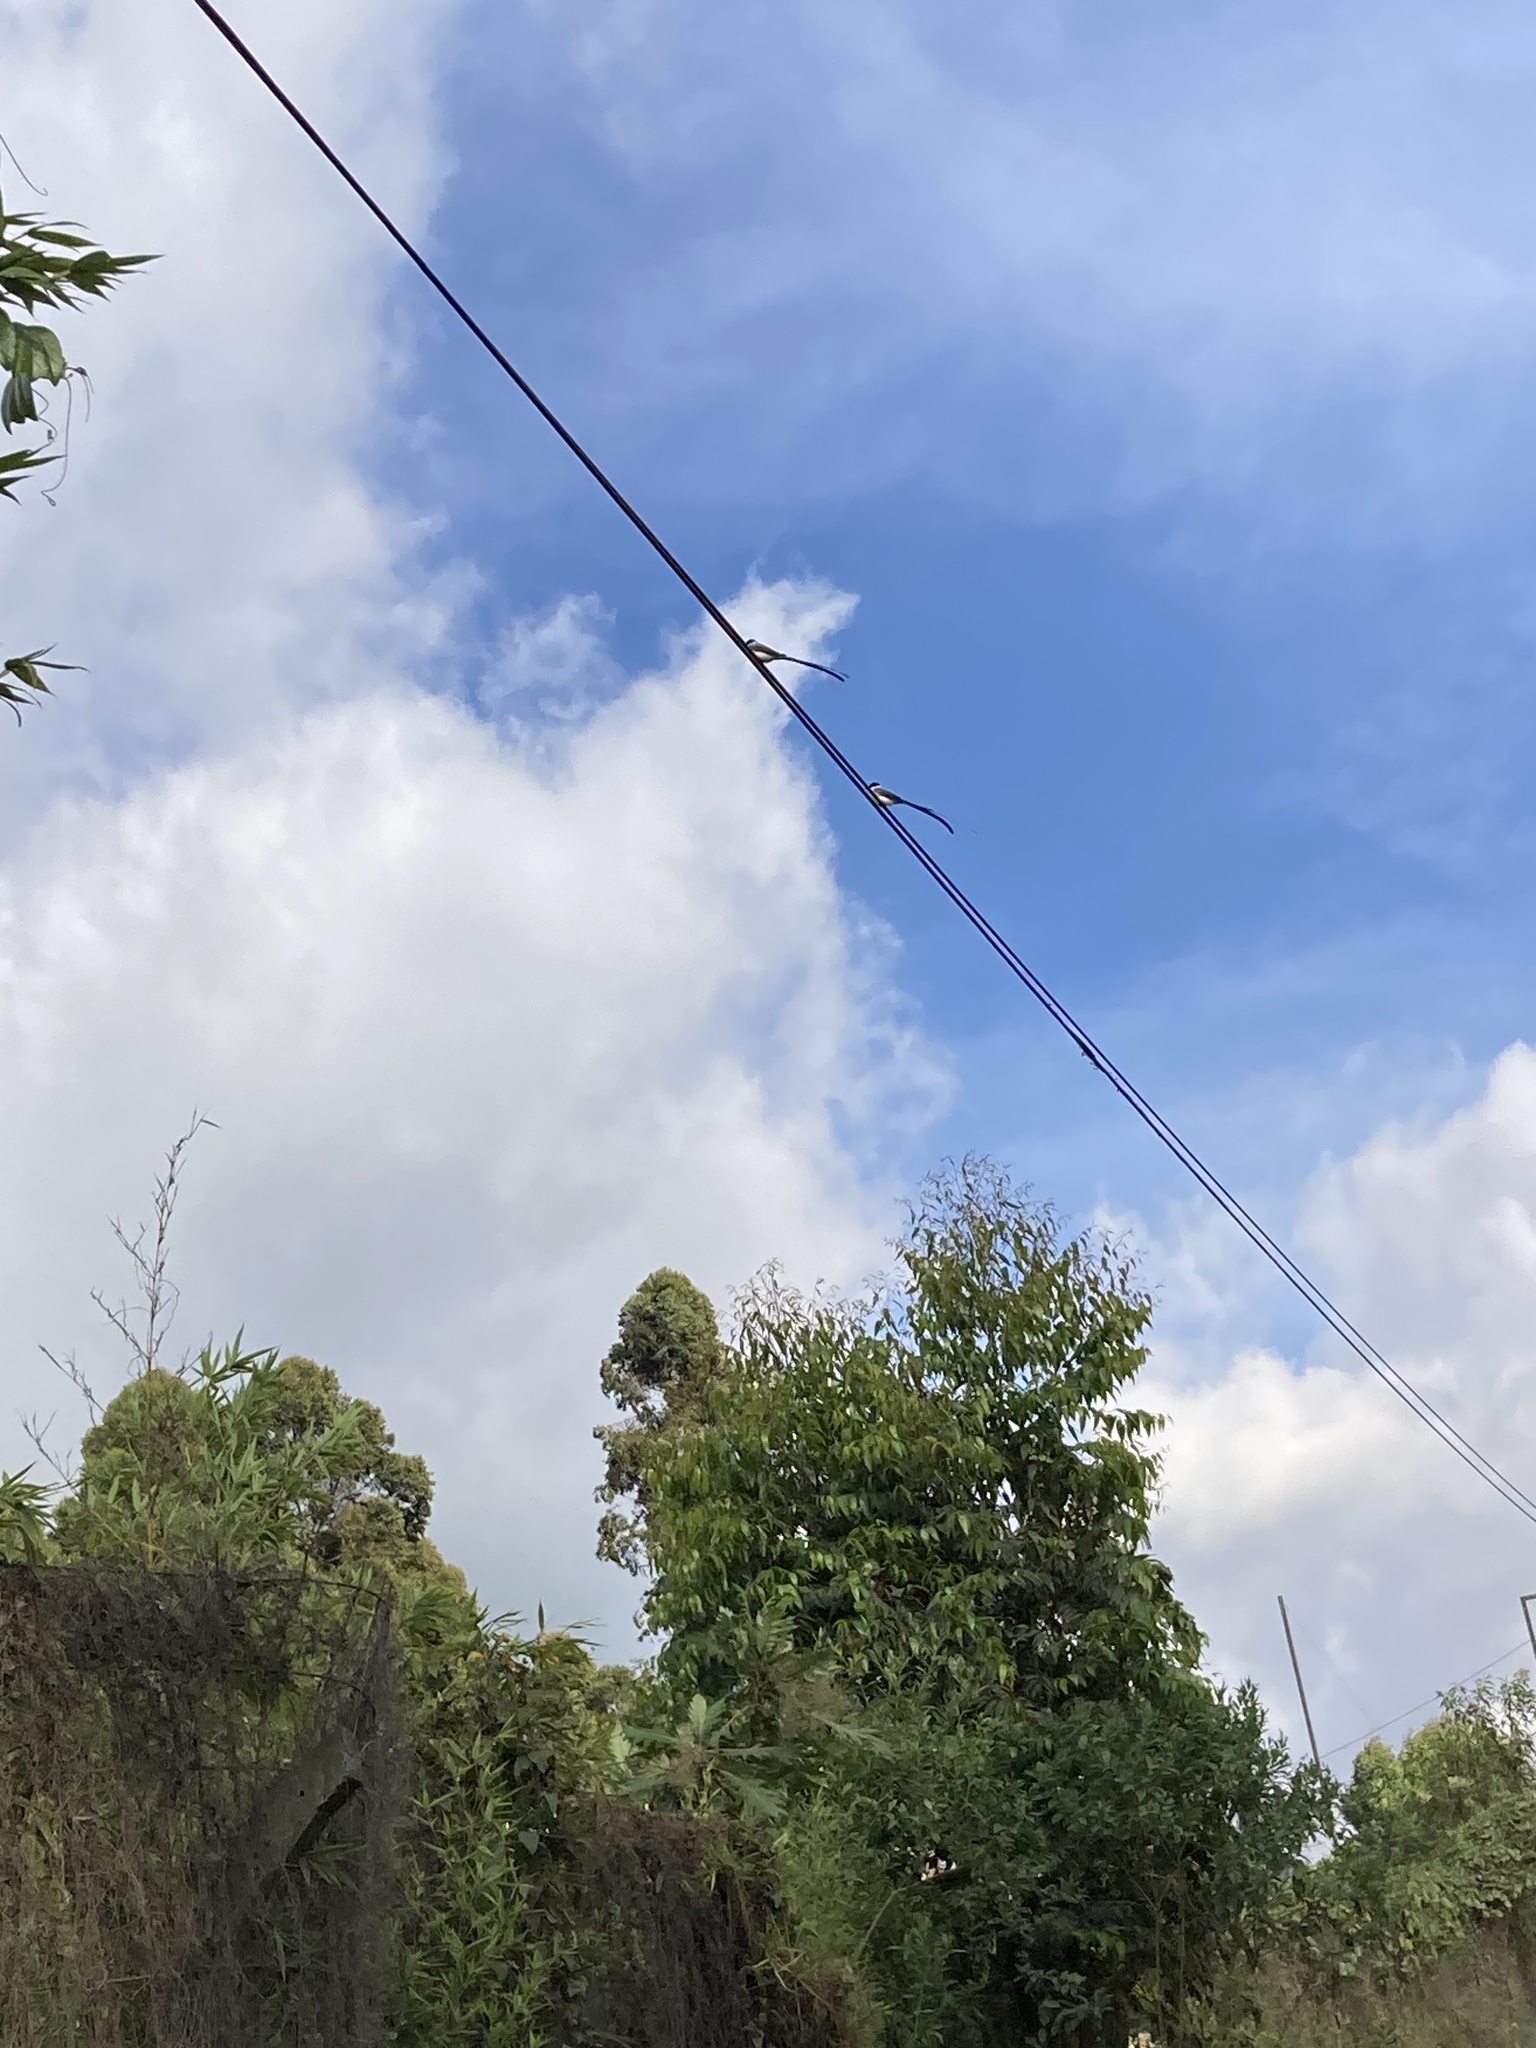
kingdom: Animalia
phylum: Chordata
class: Aves
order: Passeriformes
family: Tyrannidae
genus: Tyrannus
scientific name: Tyrannus savana
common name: Fork-tailed flycatcher
